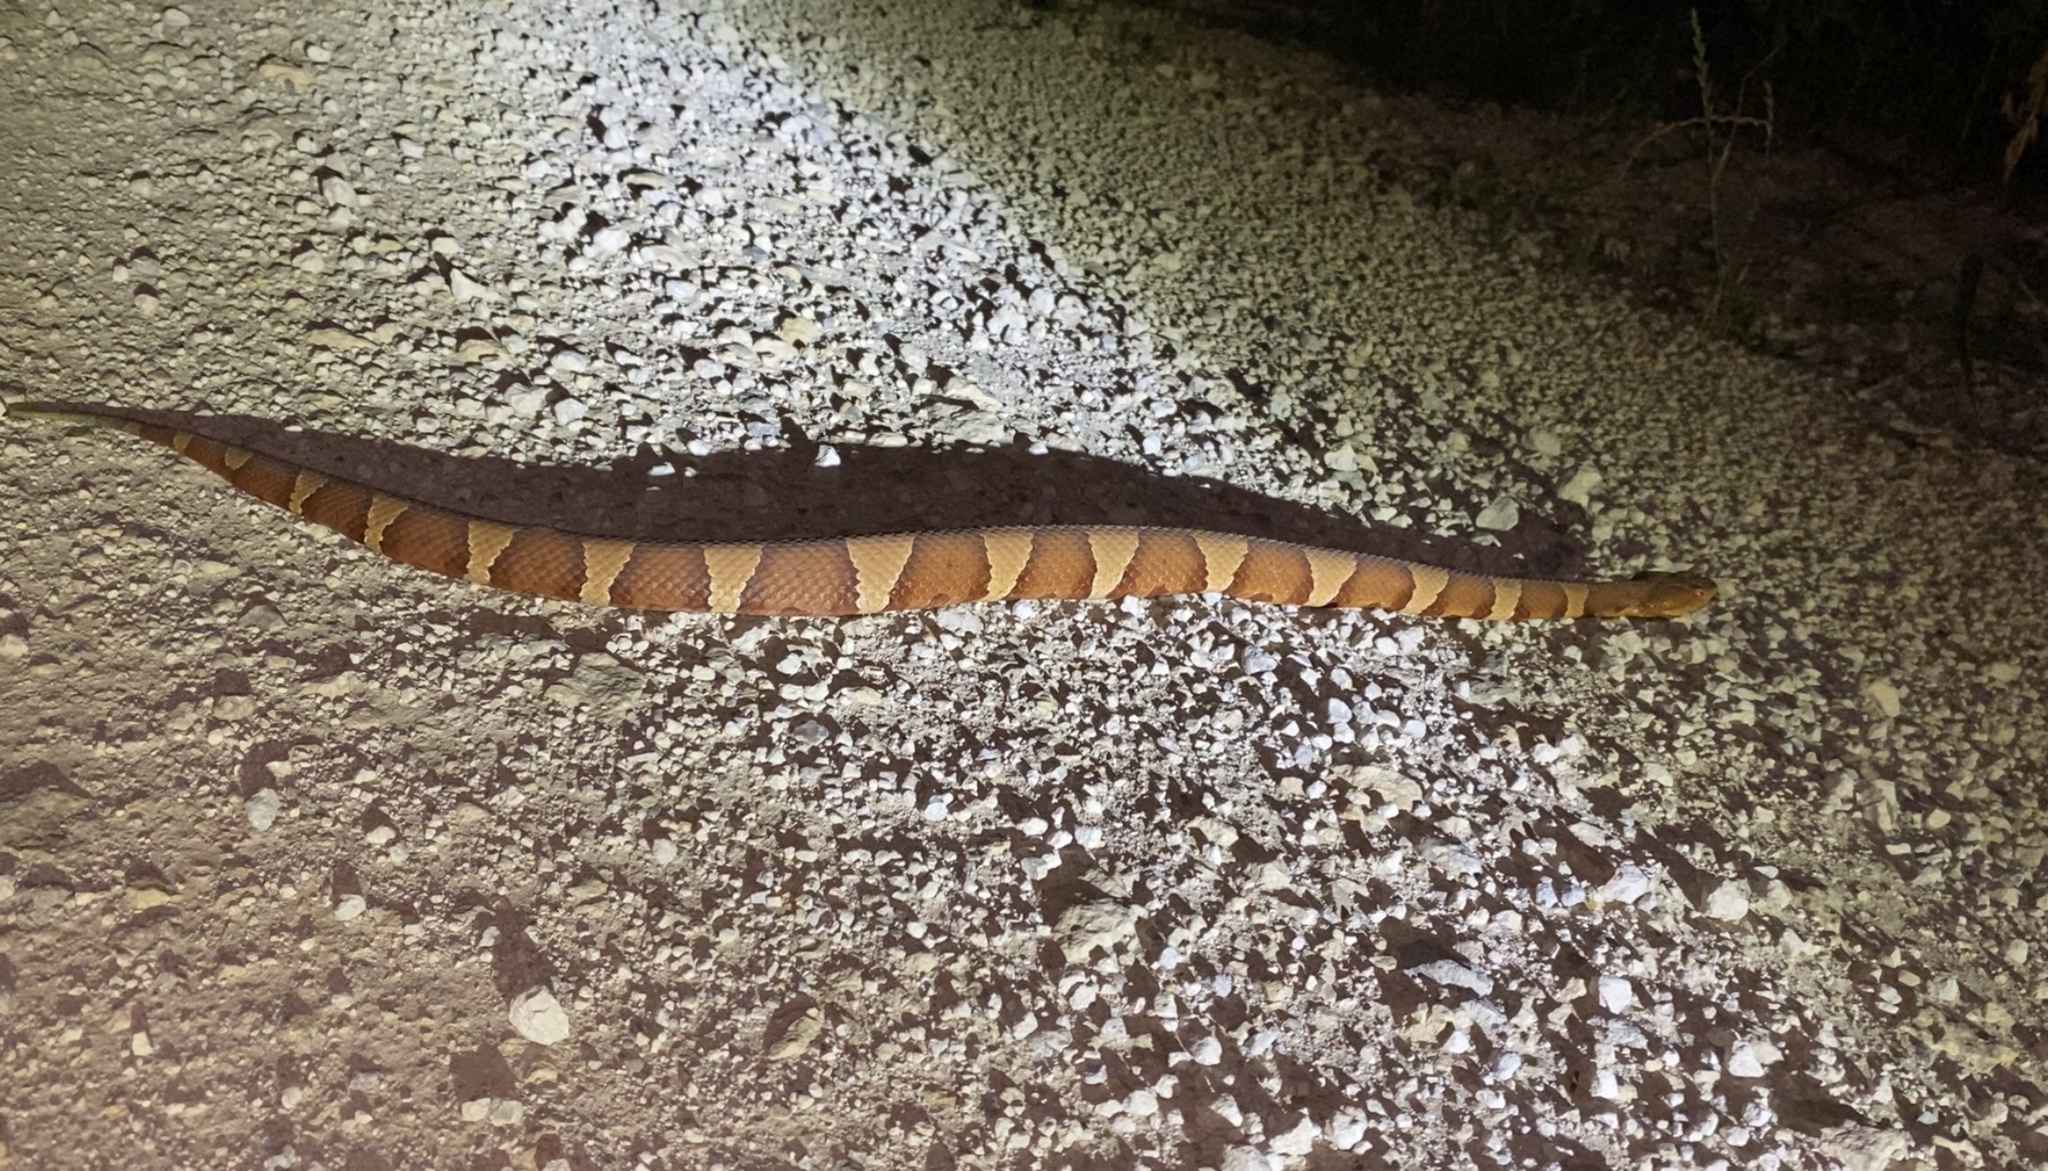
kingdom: Animalia
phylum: Chordata
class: Squamata
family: Viperidae
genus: Agkistrodon
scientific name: Agkistrodon laticinctus
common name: Broad-banded copperhead
